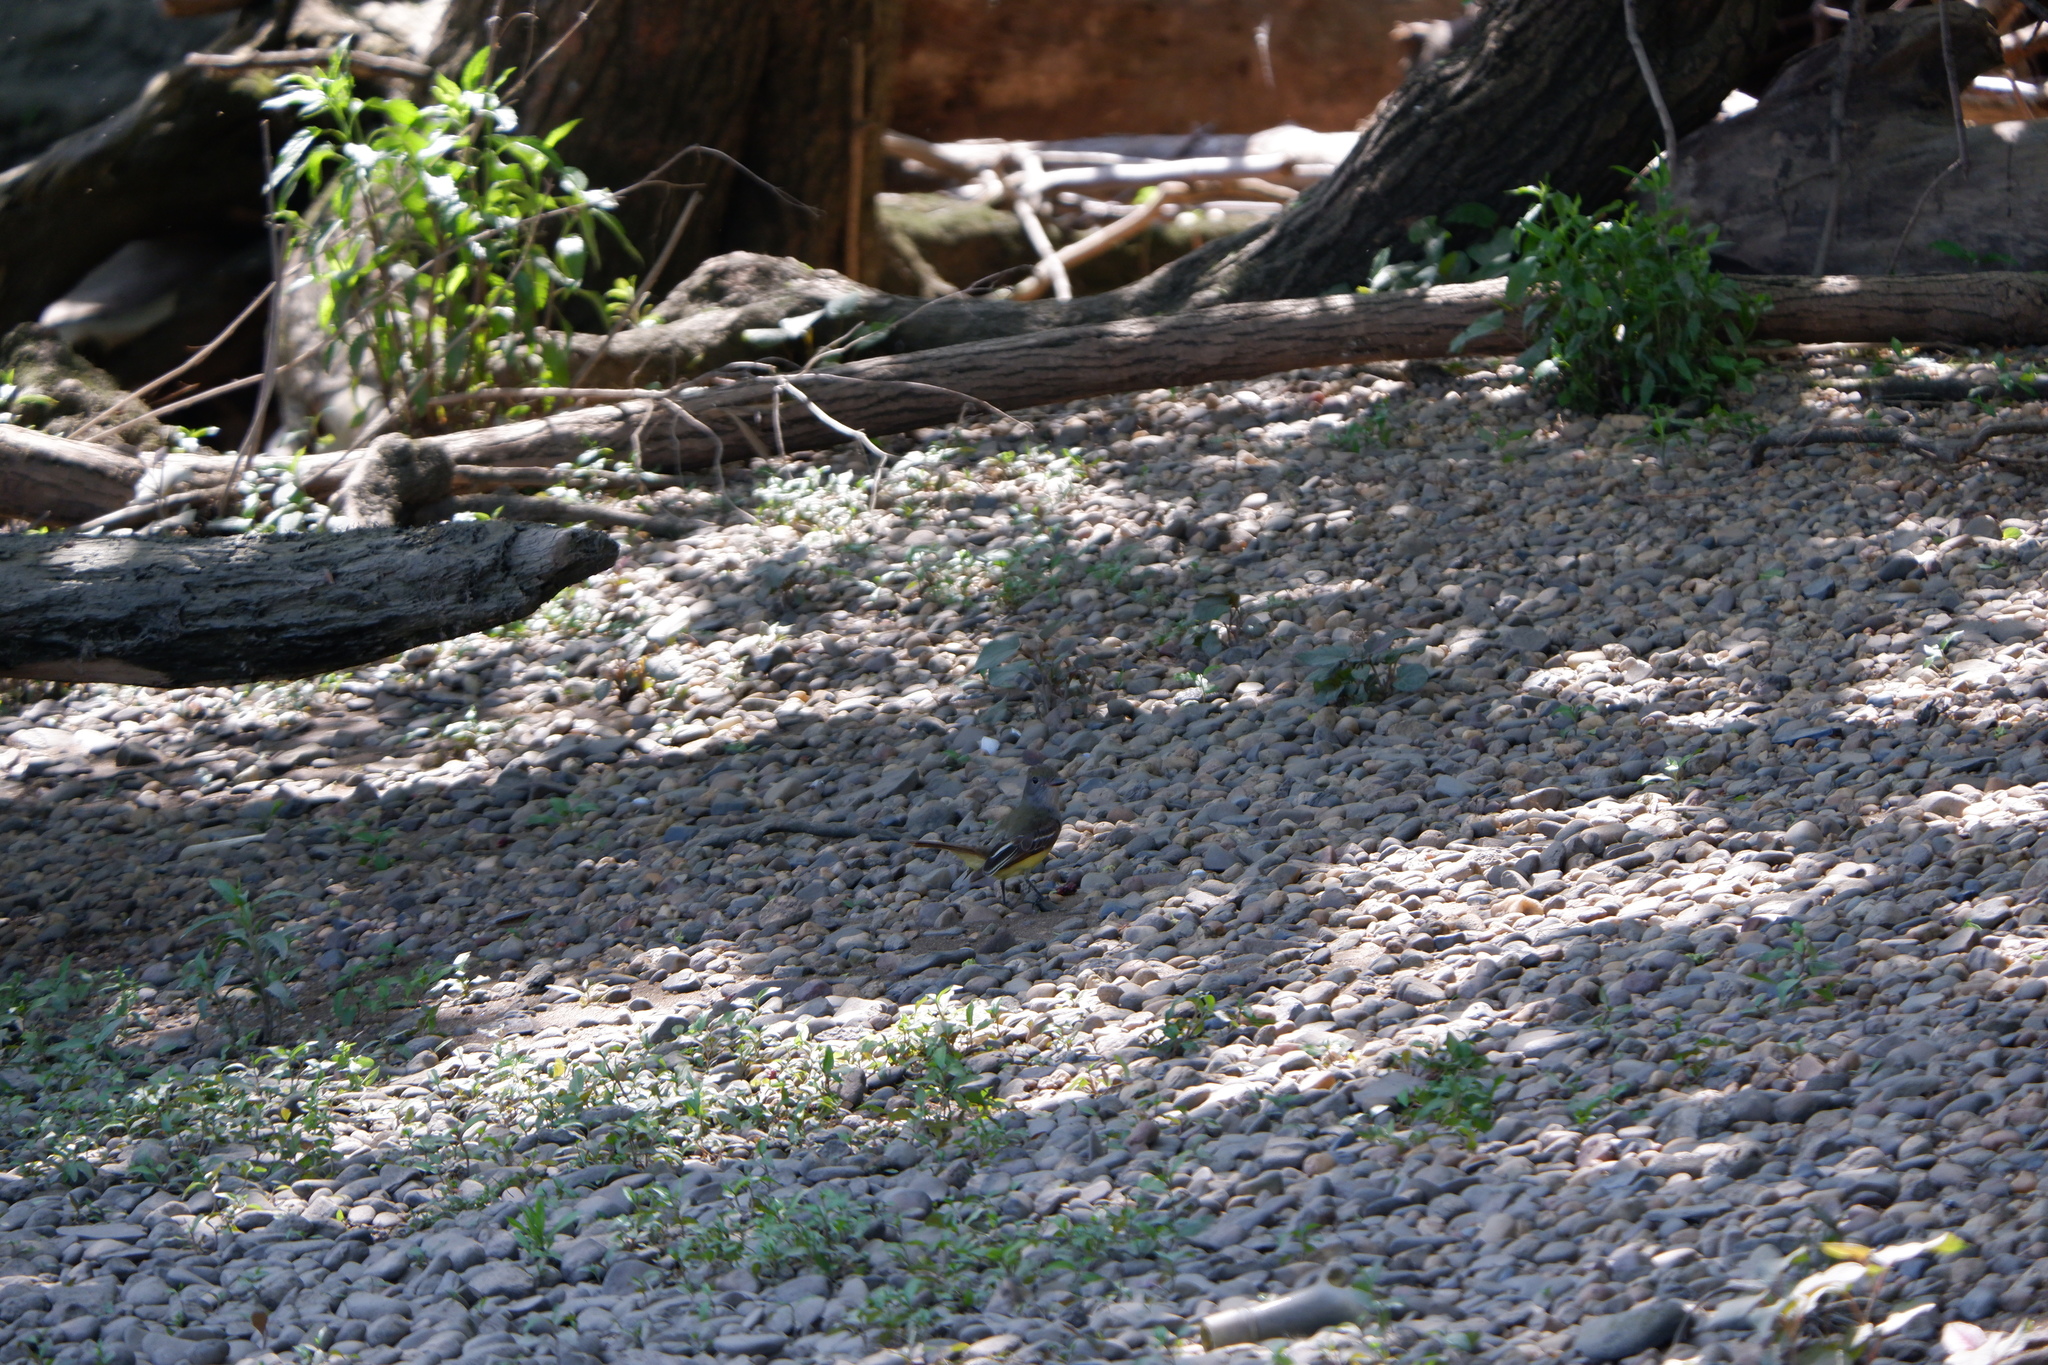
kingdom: Animalia
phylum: Chordata
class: Aves
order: Passeriformes
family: Tyrannidae
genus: Myiarchus
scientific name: Myiarchus crinitus
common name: Great crested flycatcher
